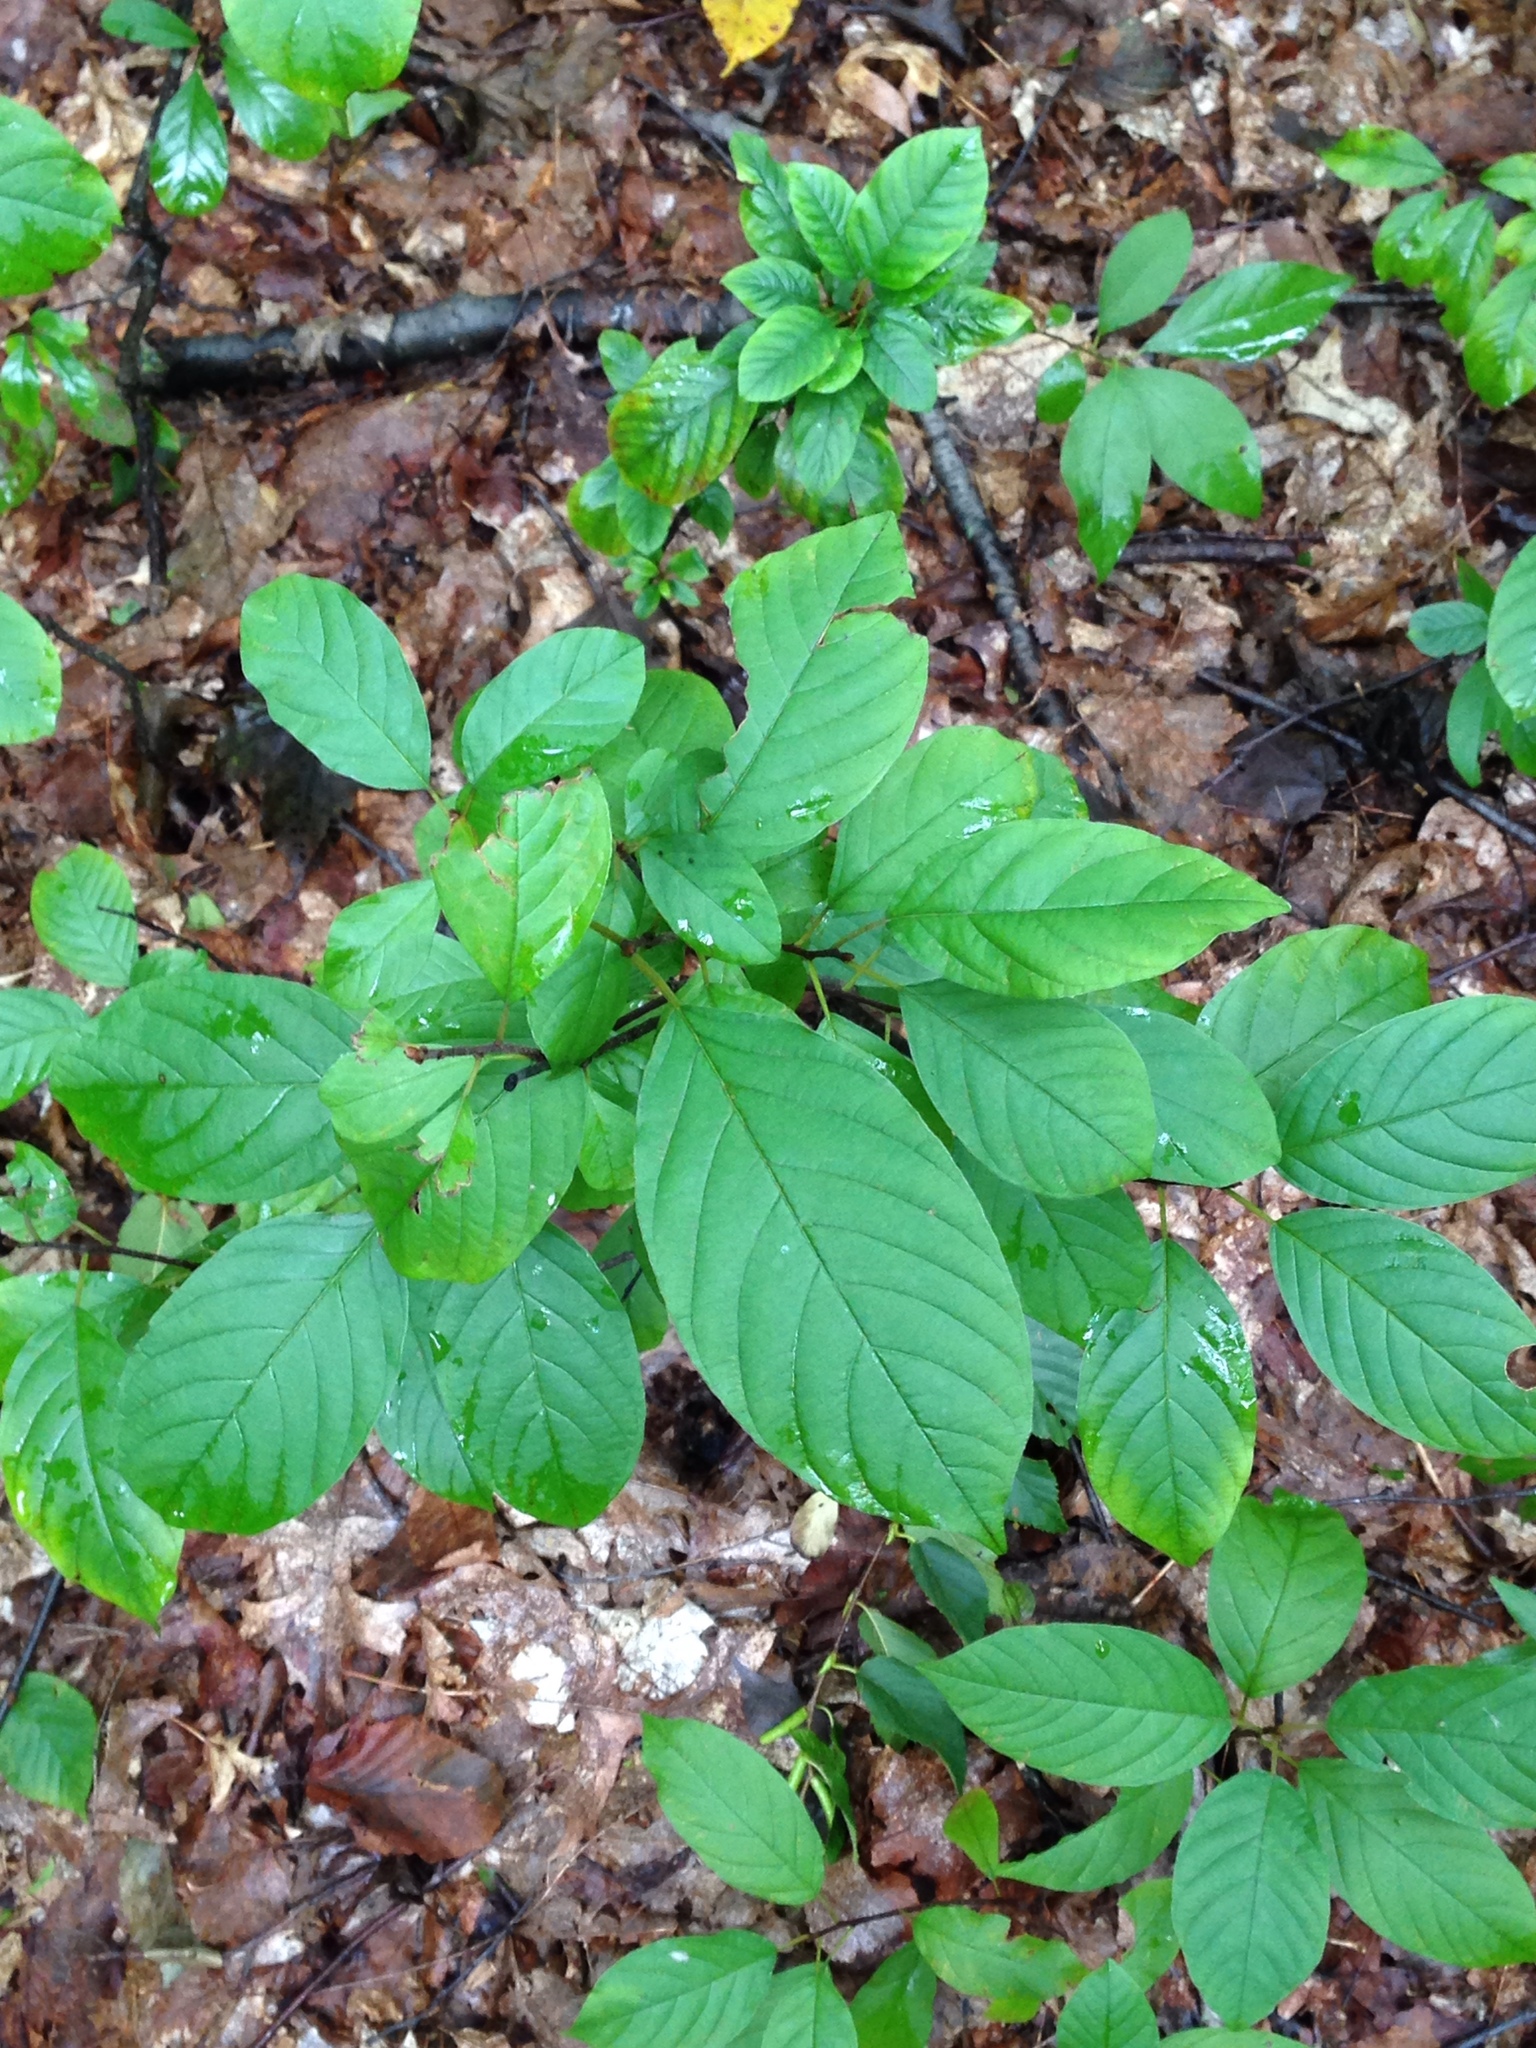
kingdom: Plantae
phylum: Tracheophyta
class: Magnoliopsida
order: Rosales
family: Rhamnaceae
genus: Frangula
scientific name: Frangula alnus
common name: Alder buckthorn
